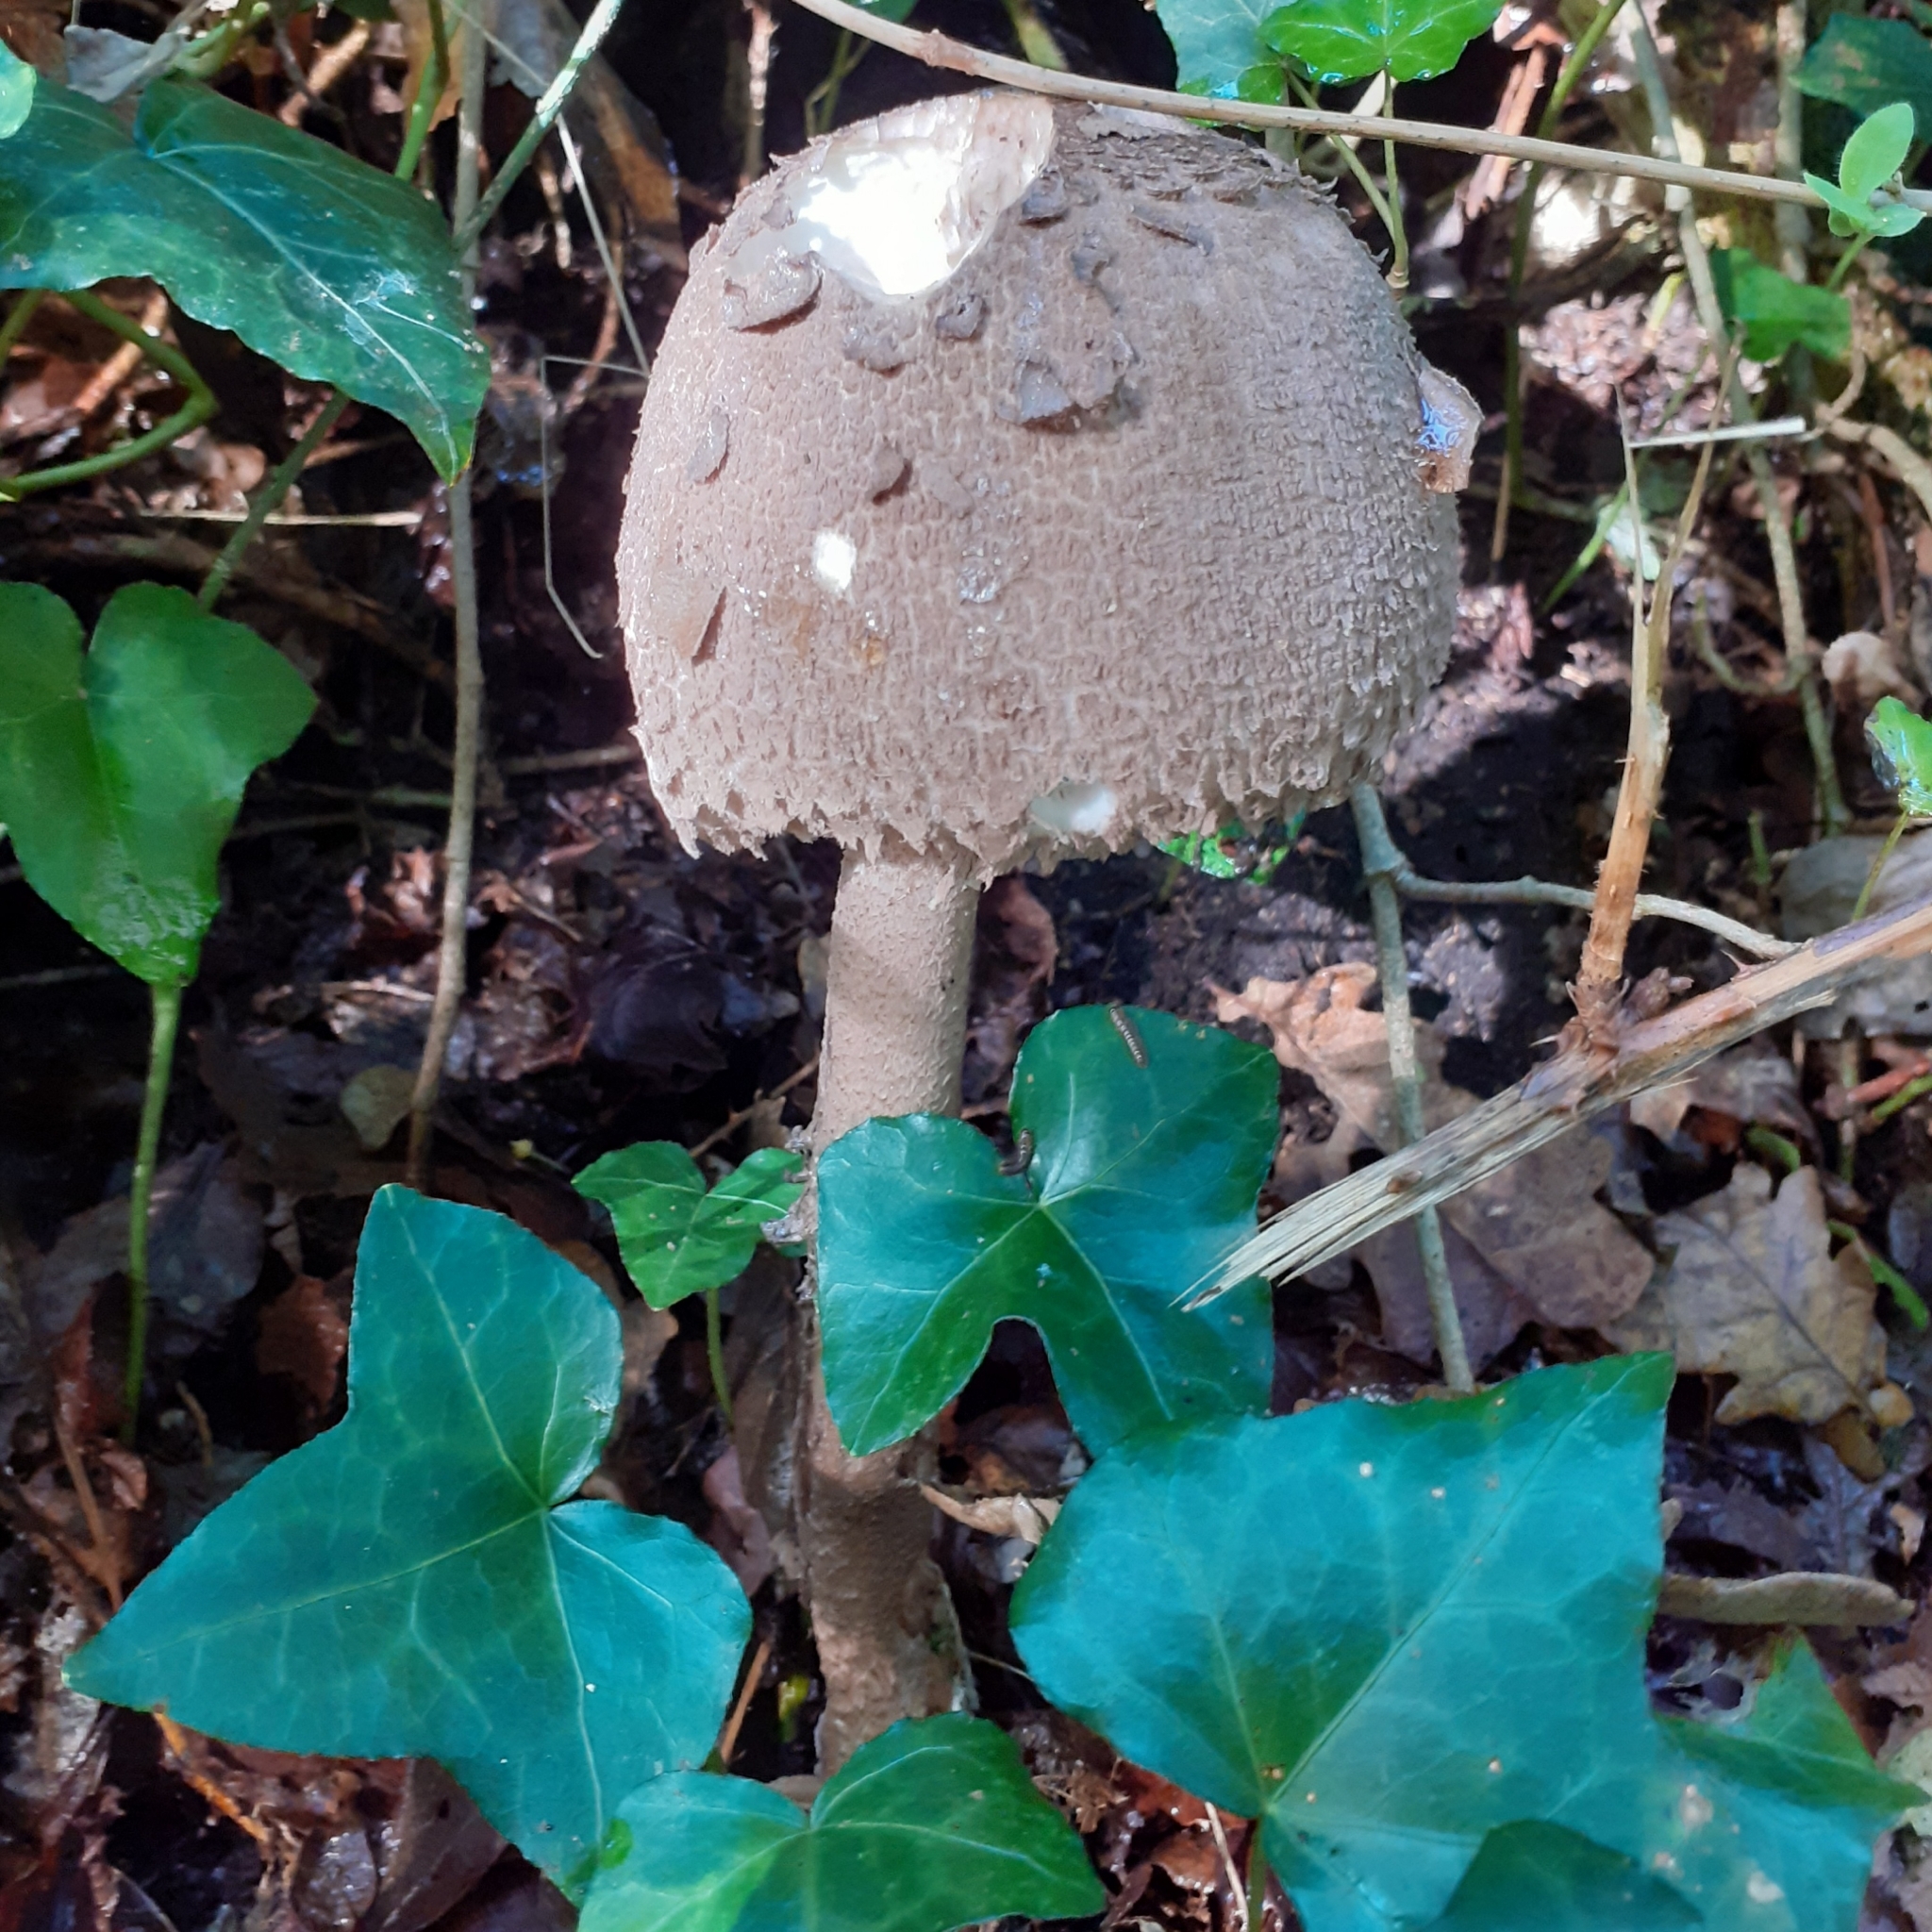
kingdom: Fungi
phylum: Basidiomycota
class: Agaricomycetes
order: Agaricales
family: Agaricaceae
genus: Macrolepiota
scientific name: Macrolepiota procera
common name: Parasol
